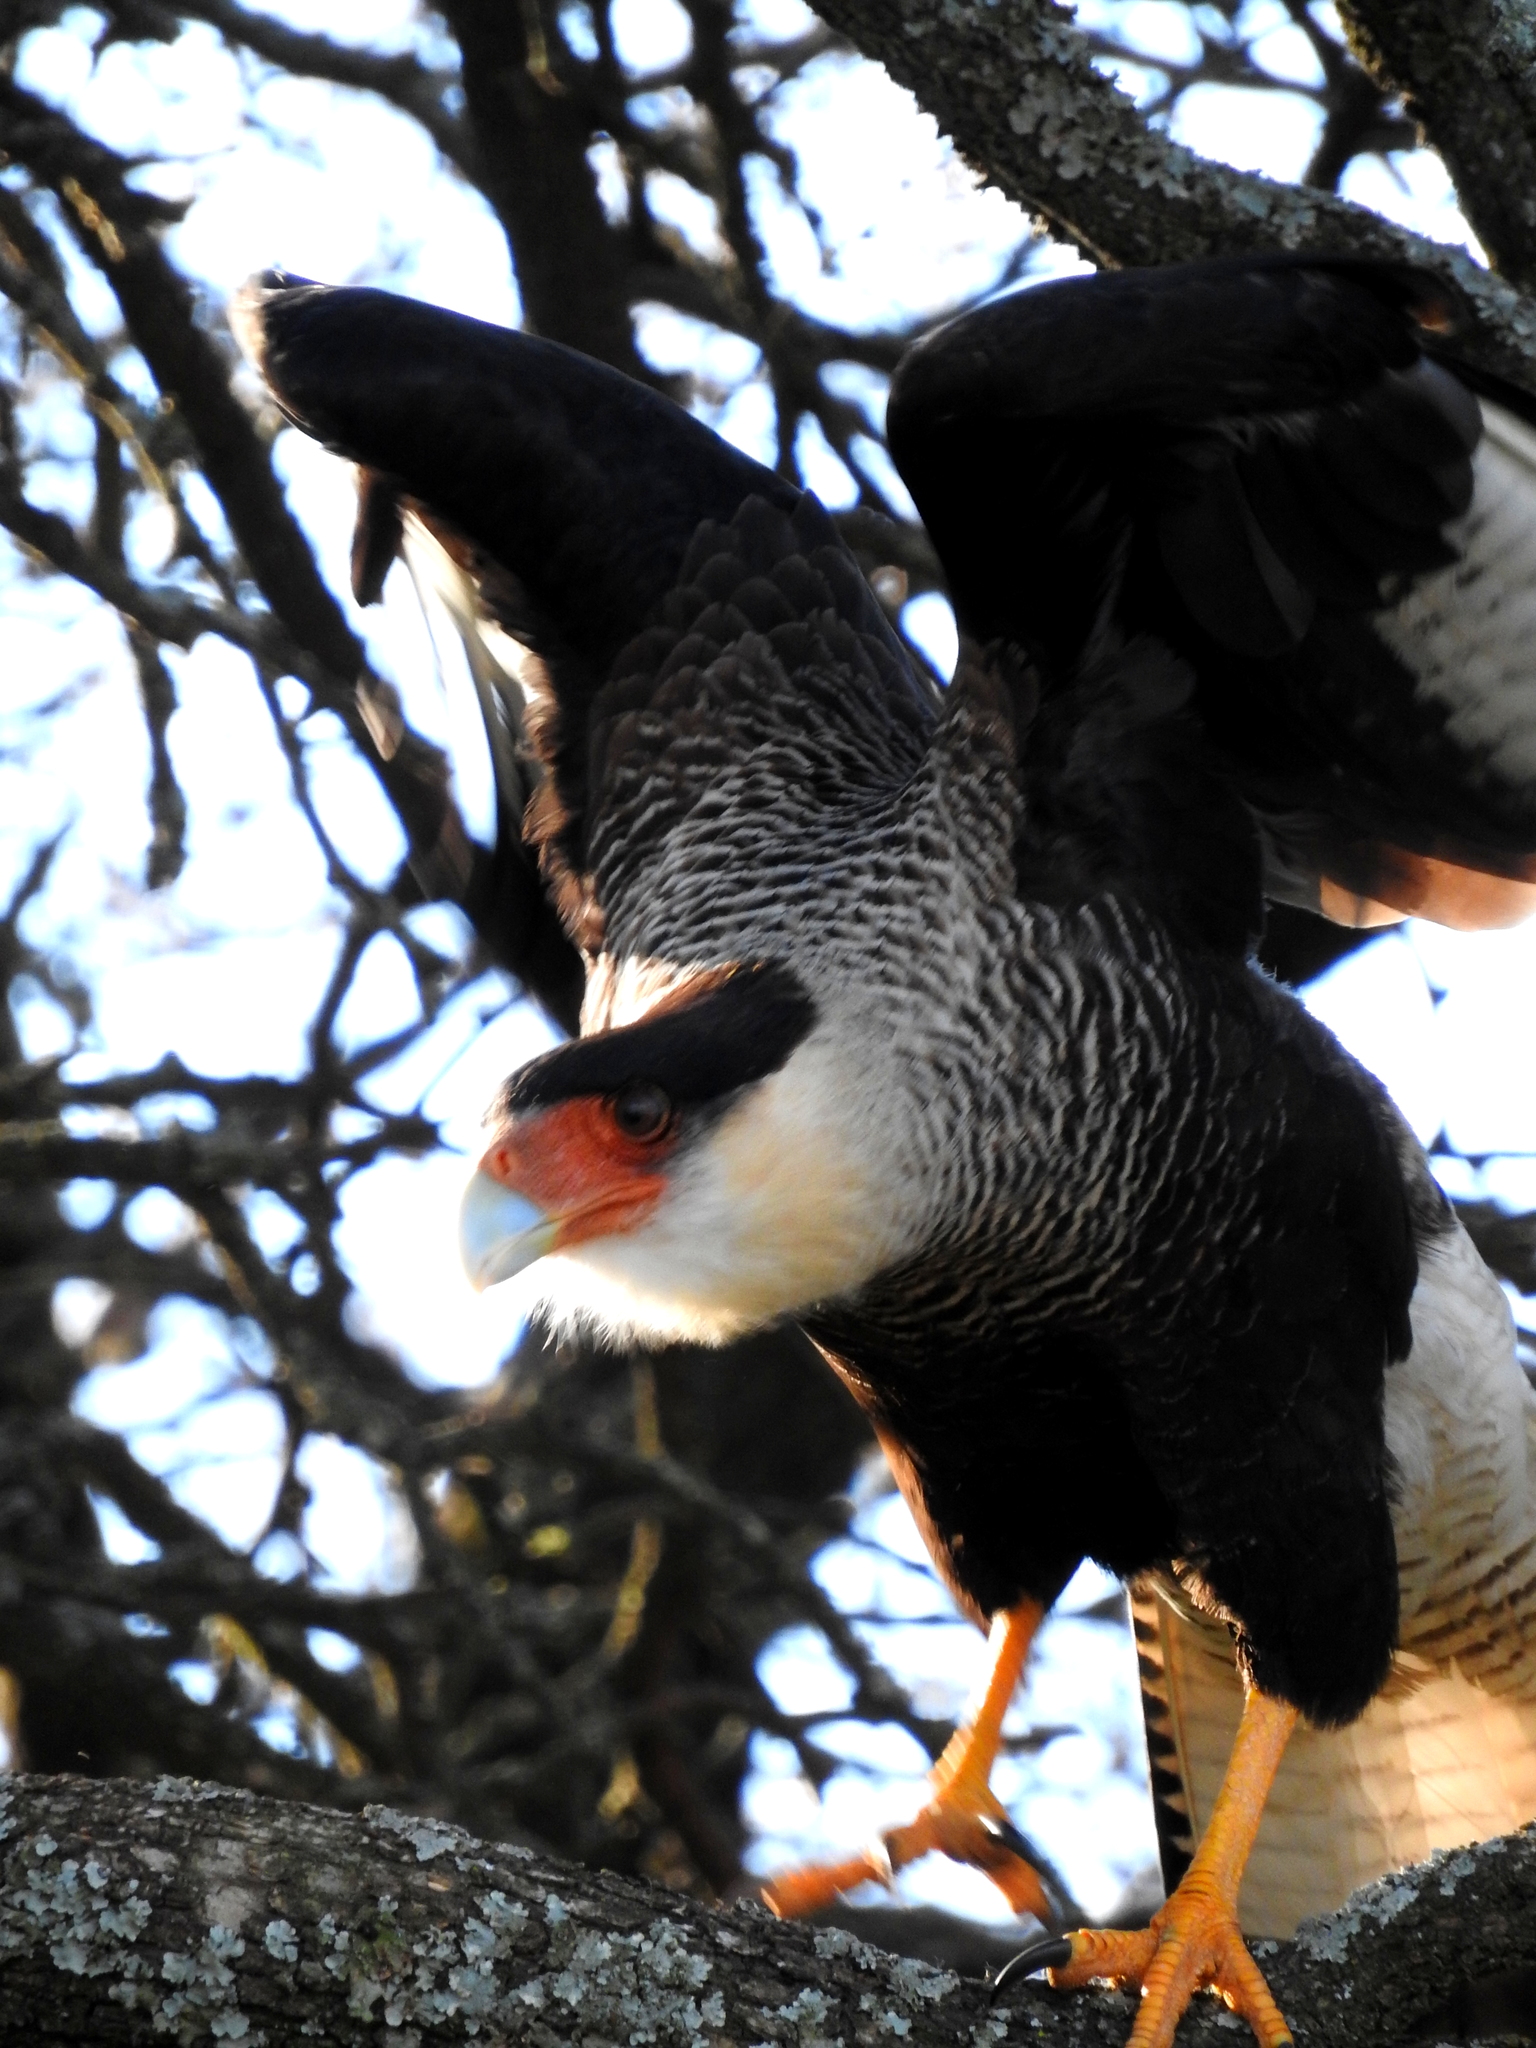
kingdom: Animalia
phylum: Chordata
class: Aves
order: Falconiformes
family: Falconidae
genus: Caracara
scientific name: Caracara plancus
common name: Southern caracara
